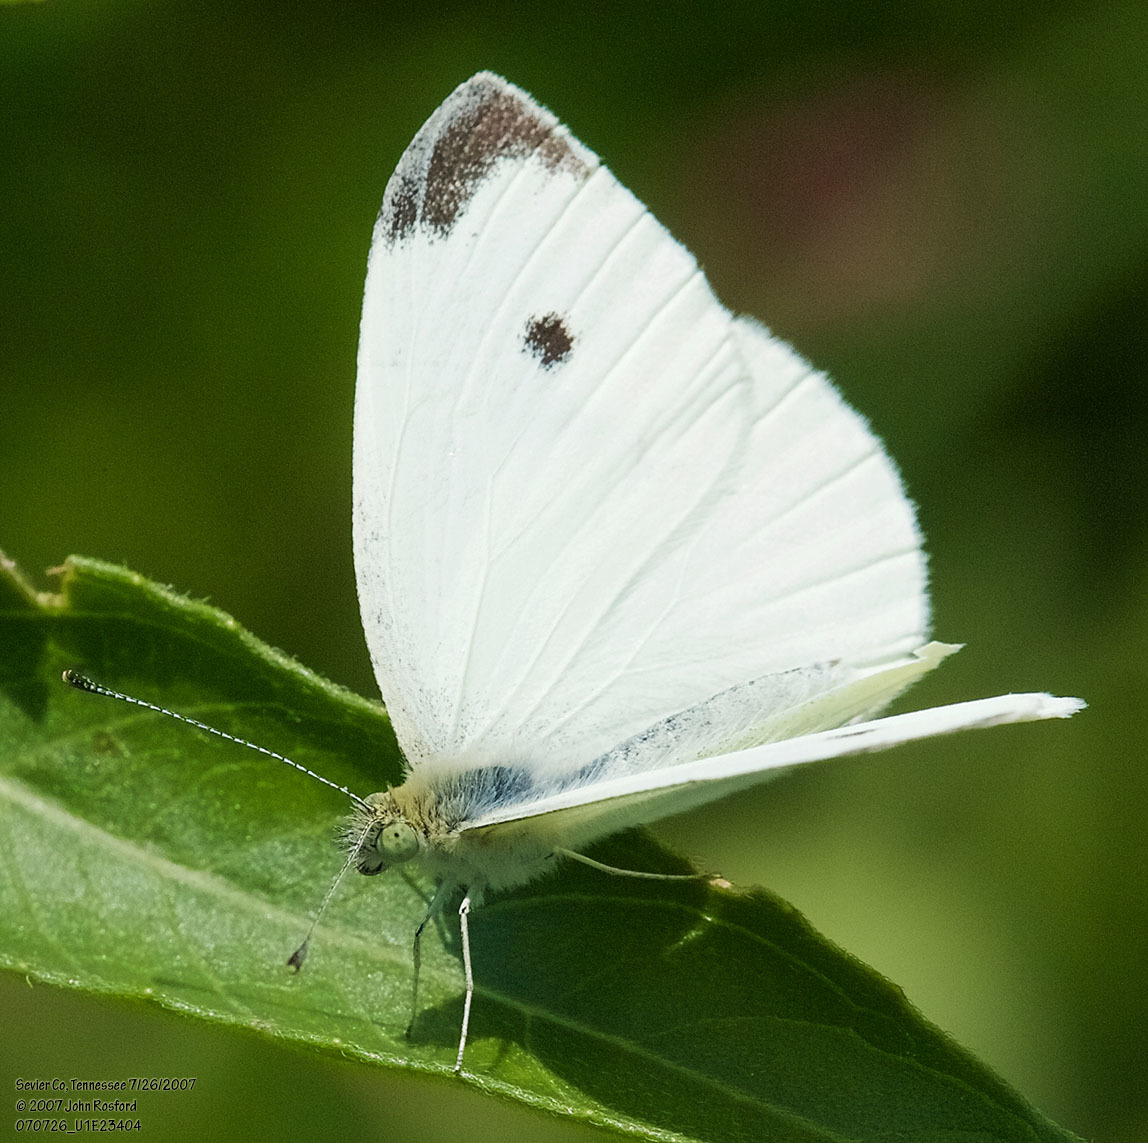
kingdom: Animalia
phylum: Arthropoda
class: Insecta
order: Lepidoptera
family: Pieridae
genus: Pieris
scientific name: Pieris rapae
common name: Small white
